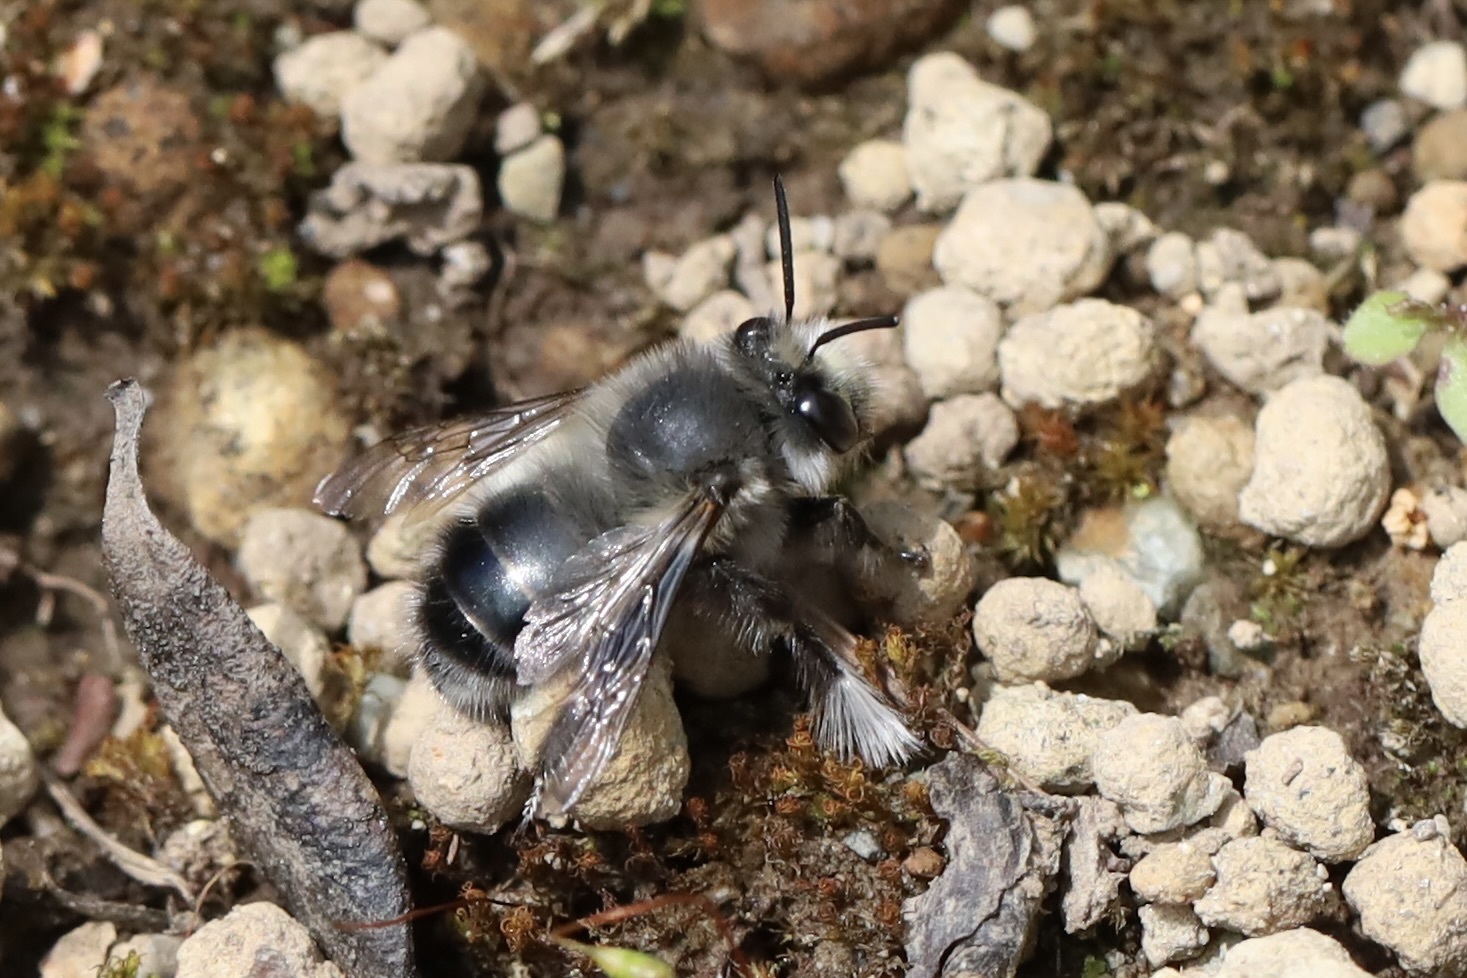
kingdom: Animalia
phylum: Arthropoda
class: Insecta
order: Hymenoptera
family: Apidae
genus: Anthophora
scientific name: Anthophora pacifica
